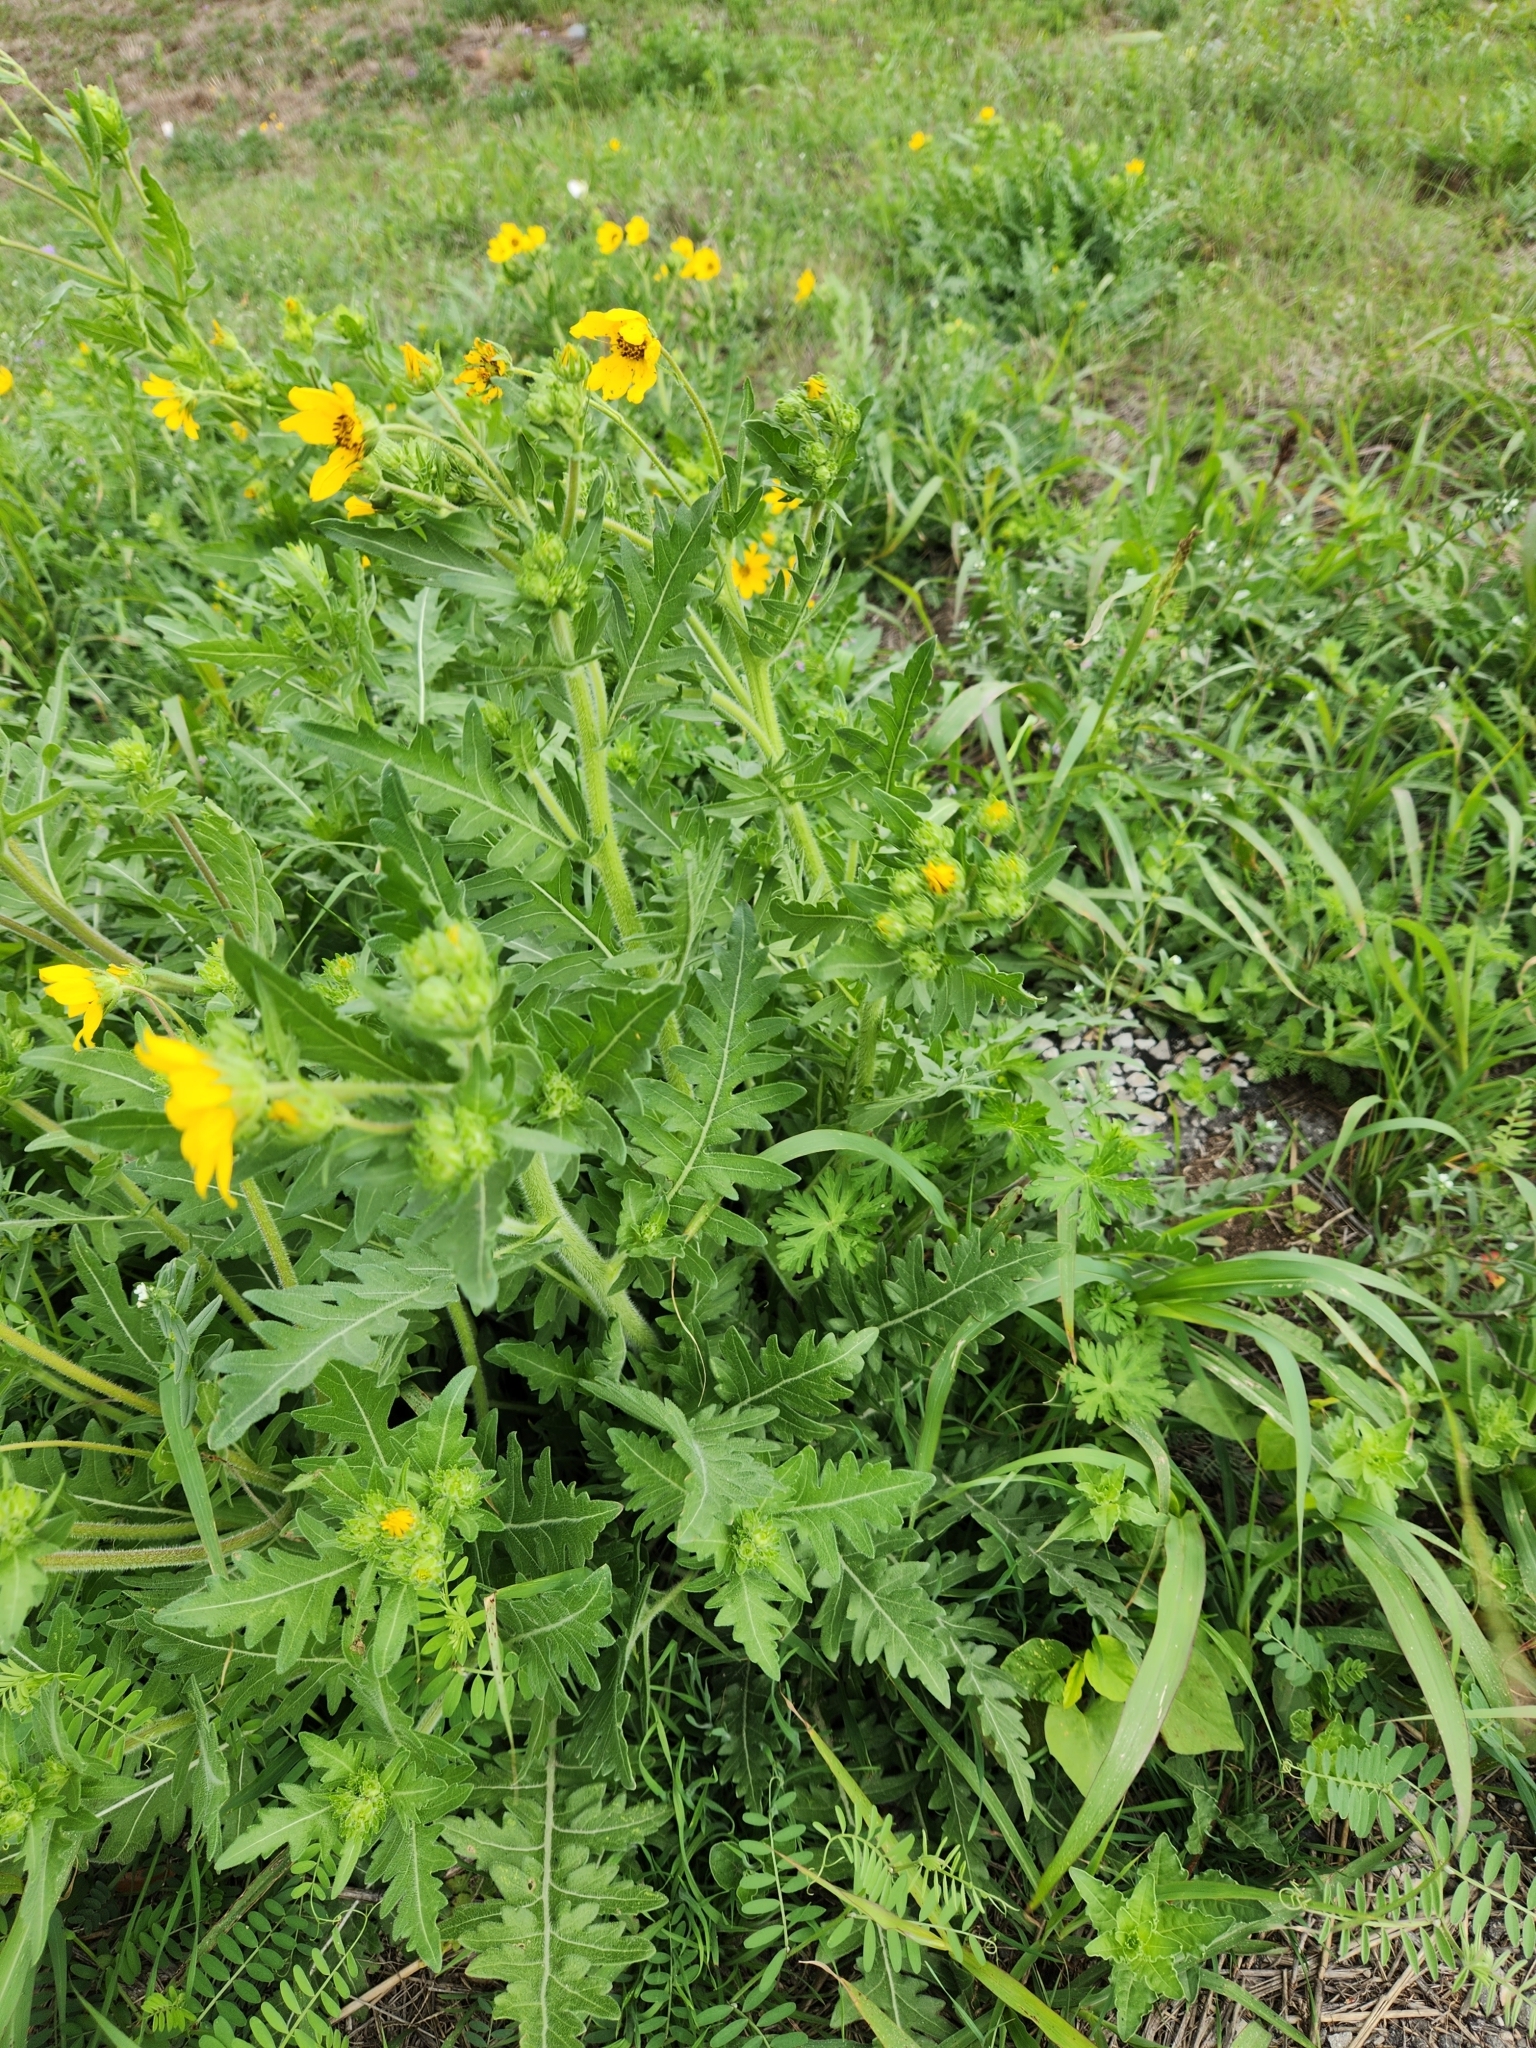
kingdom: Plantae
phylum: Tracheophyta
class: Magnoliopsida
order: Asterales
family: Asteraceae
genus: Engelmannia
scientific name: Engelmannia peristenia
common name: Engelmann's daisy
